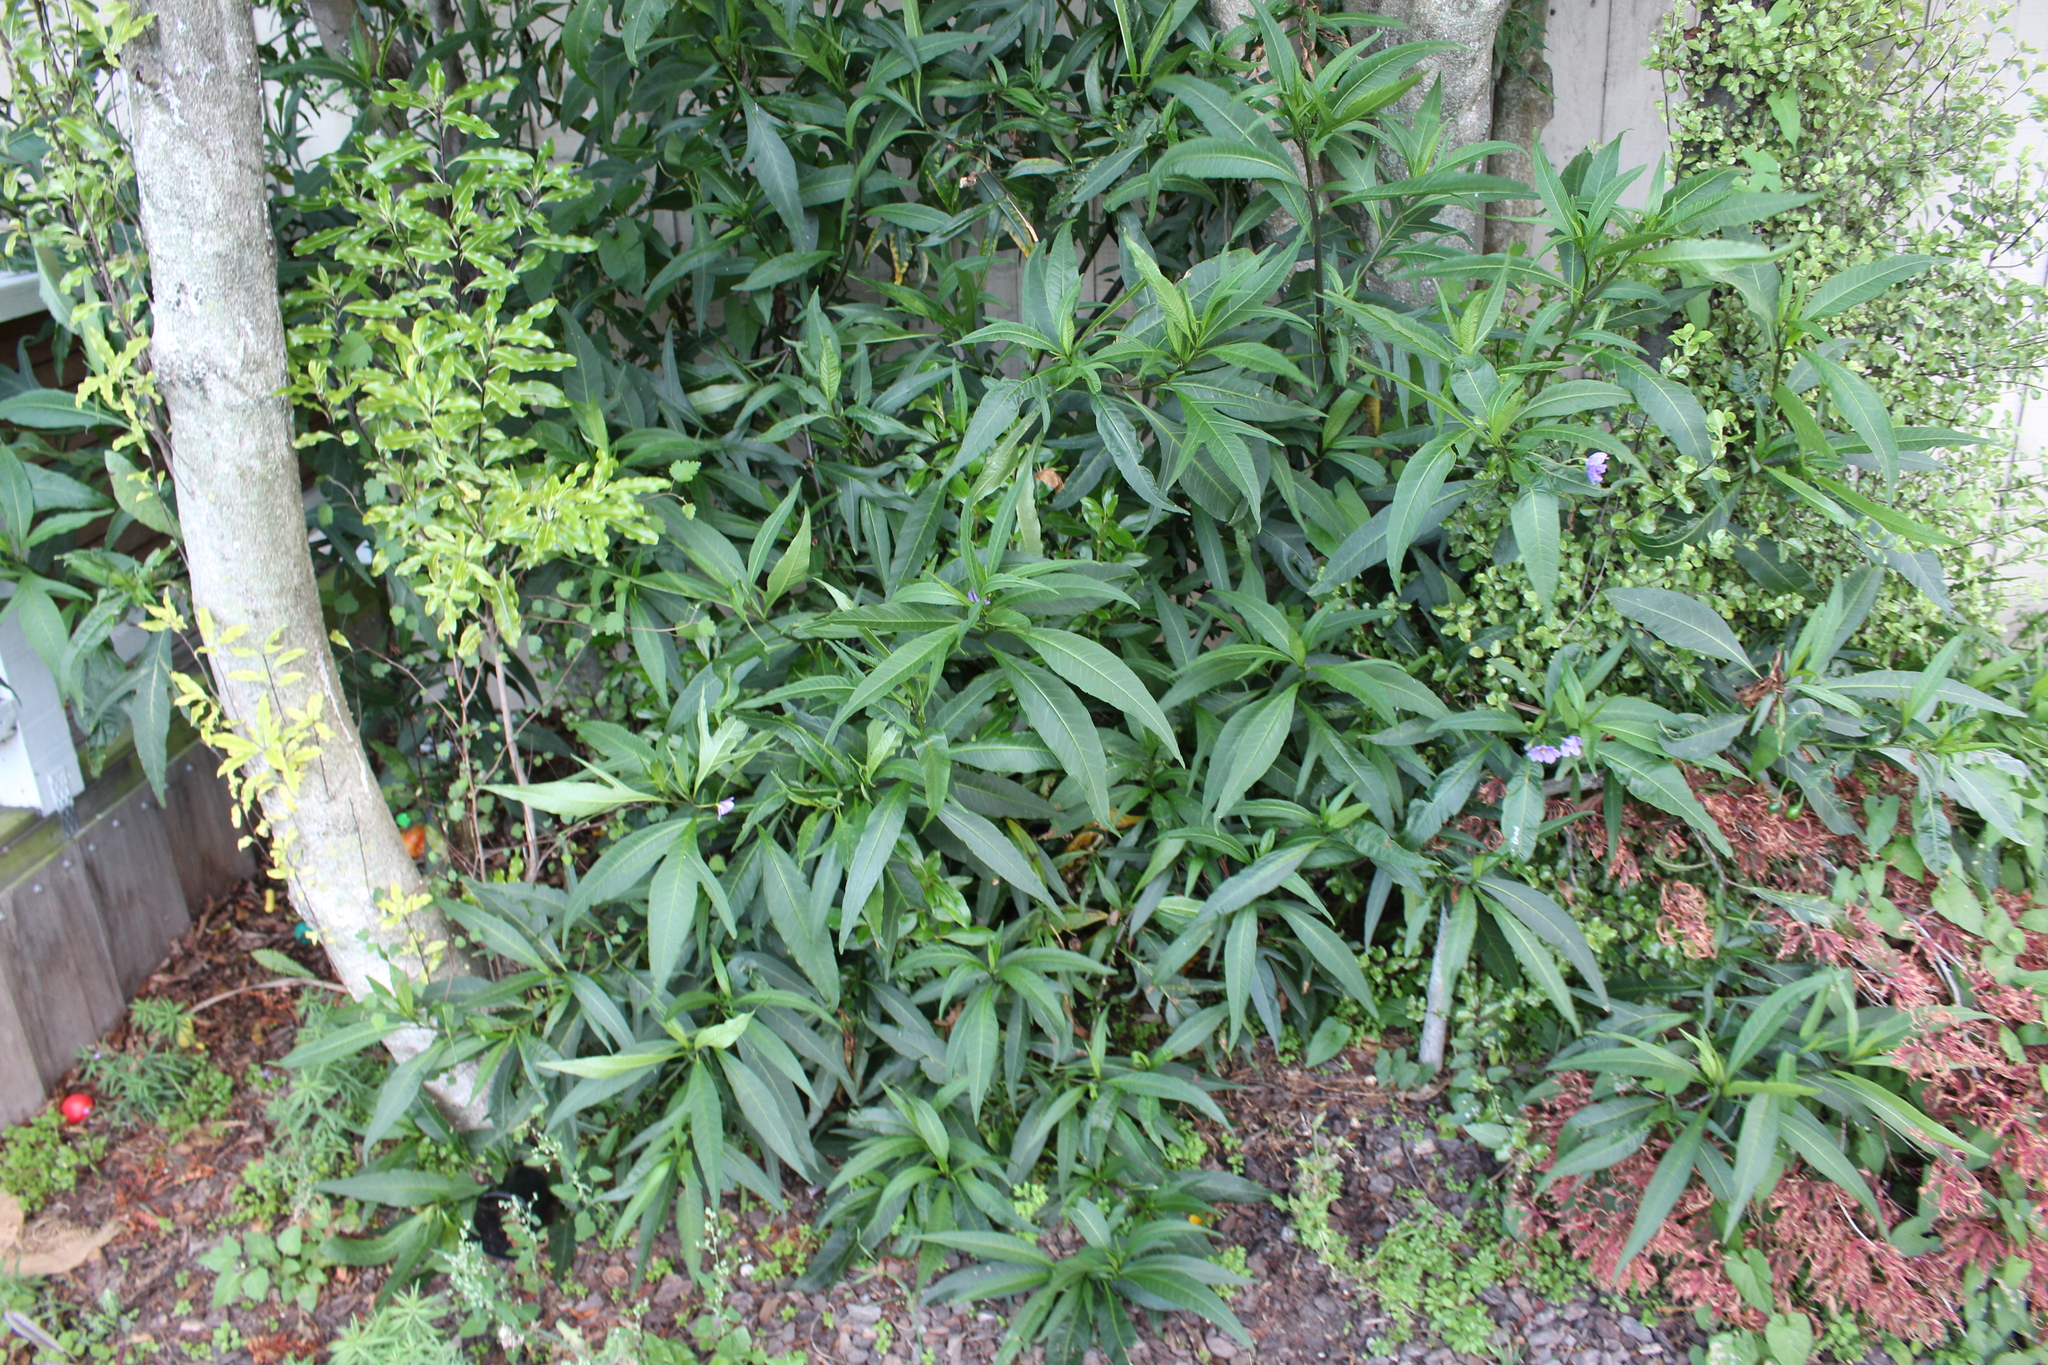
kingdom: Plantae
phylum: Tracheophyta
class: Magnoliopsida
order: Solanales
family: Solanaceae
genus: Solanum
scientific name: Solanum laciniatum
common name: Kangaroo-apple
